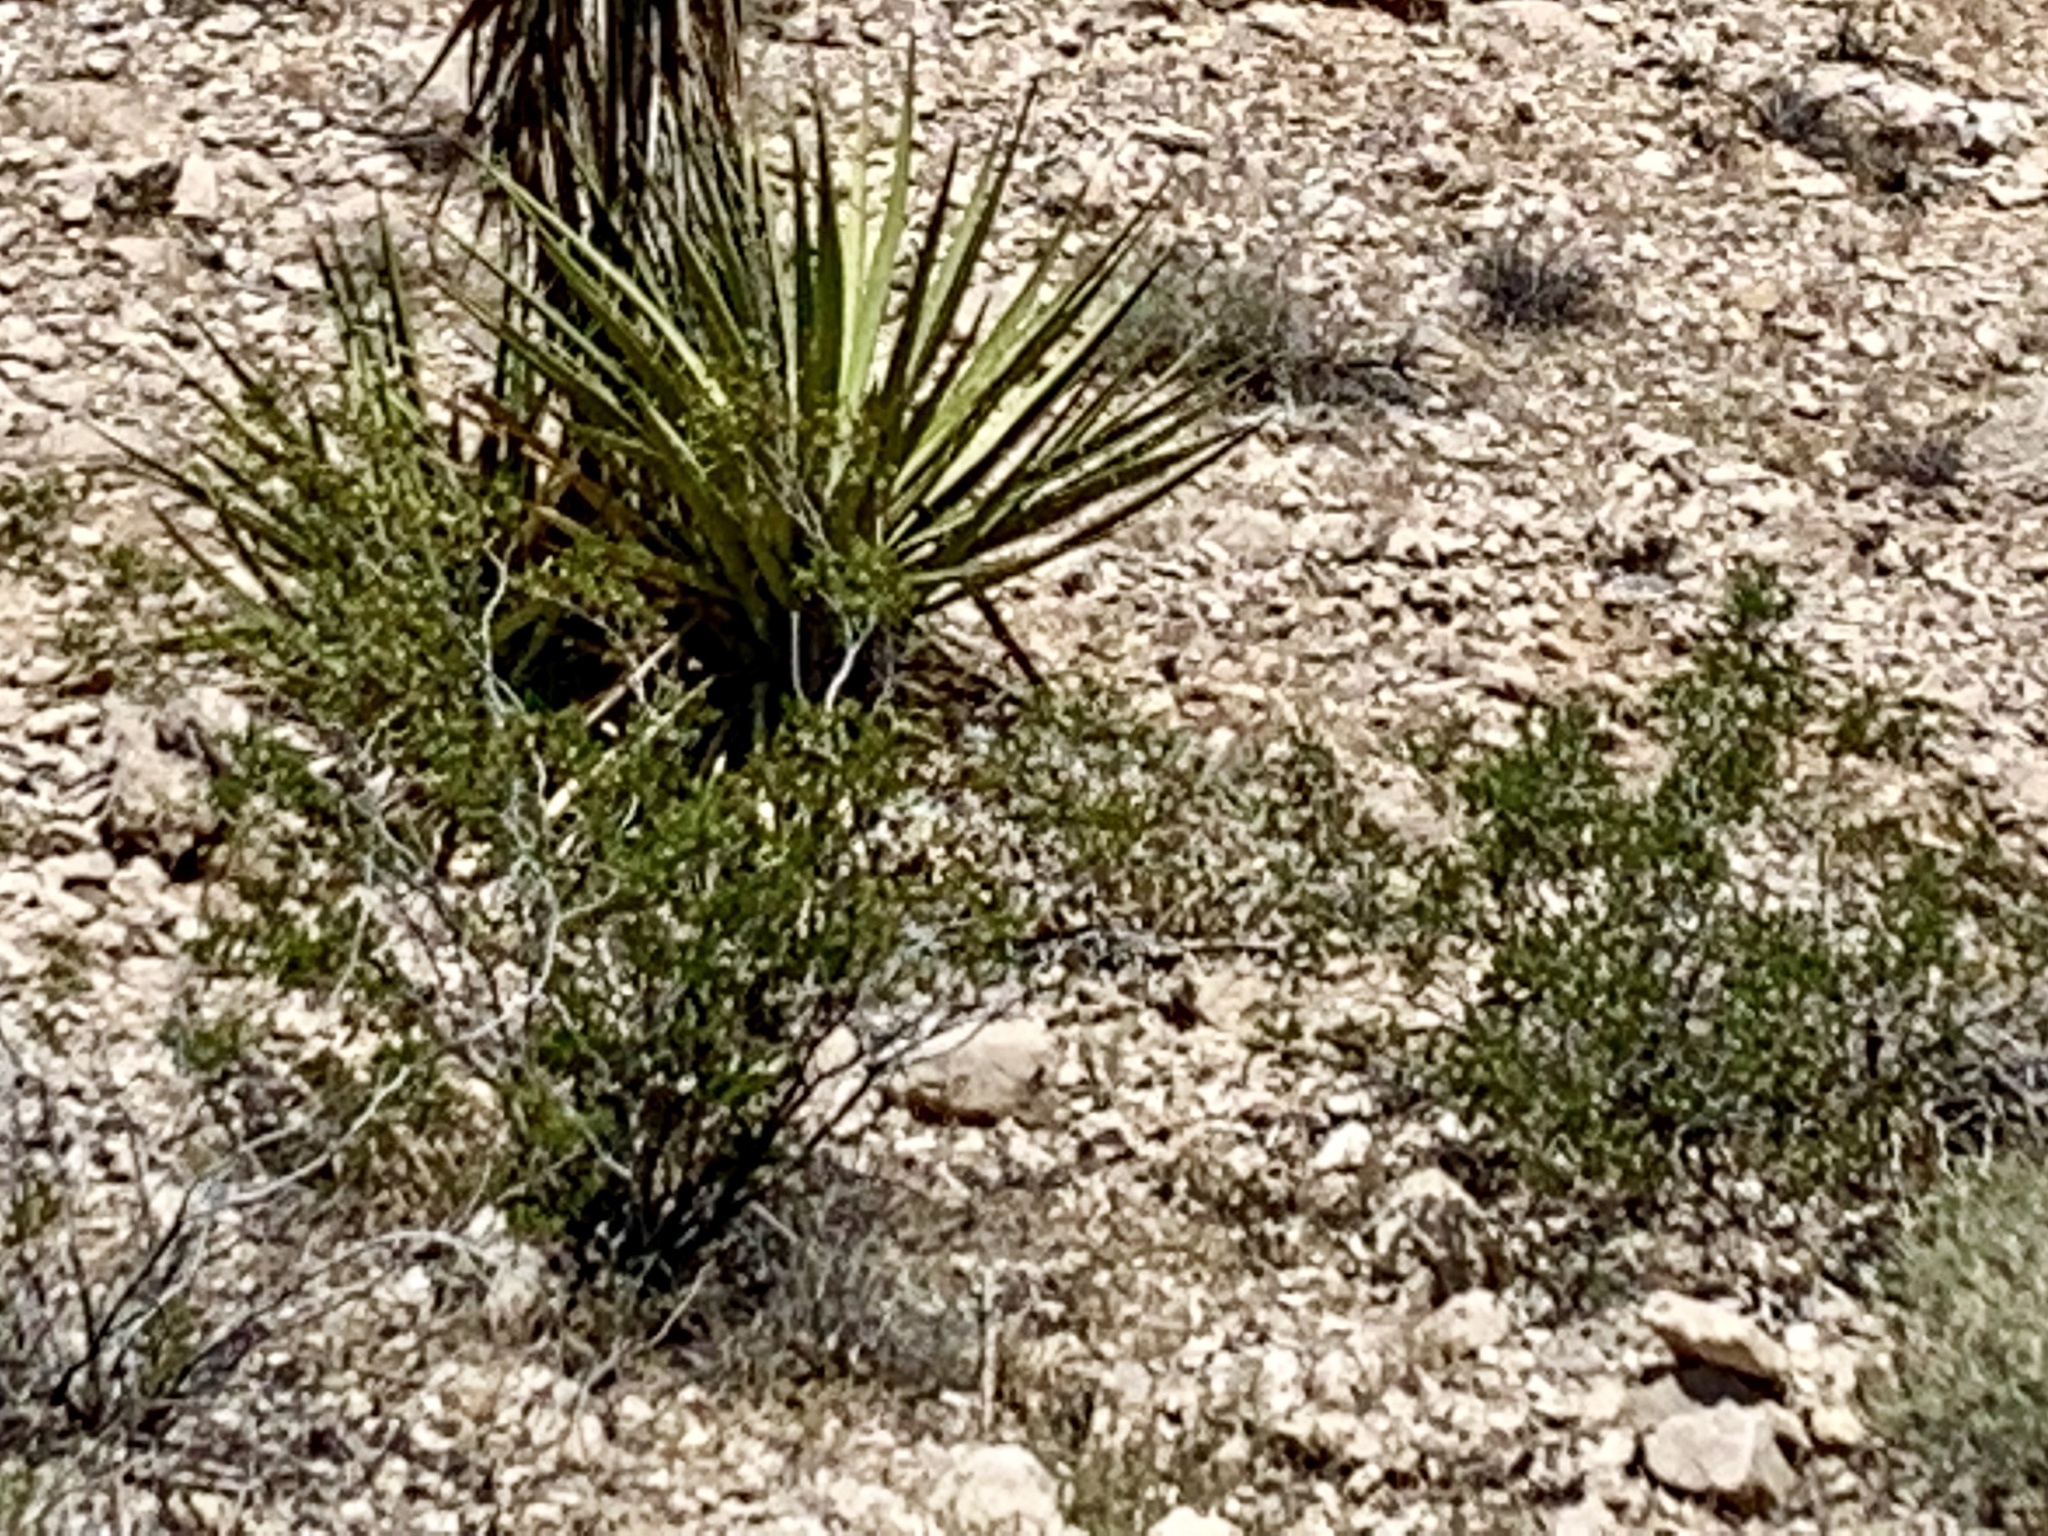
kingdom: Plantae
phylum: Tracheophyta
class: Magnoliopsida
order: Zygophyllales
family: Zygophyllaceae
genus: Larrea
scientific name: Larrea tridentata
